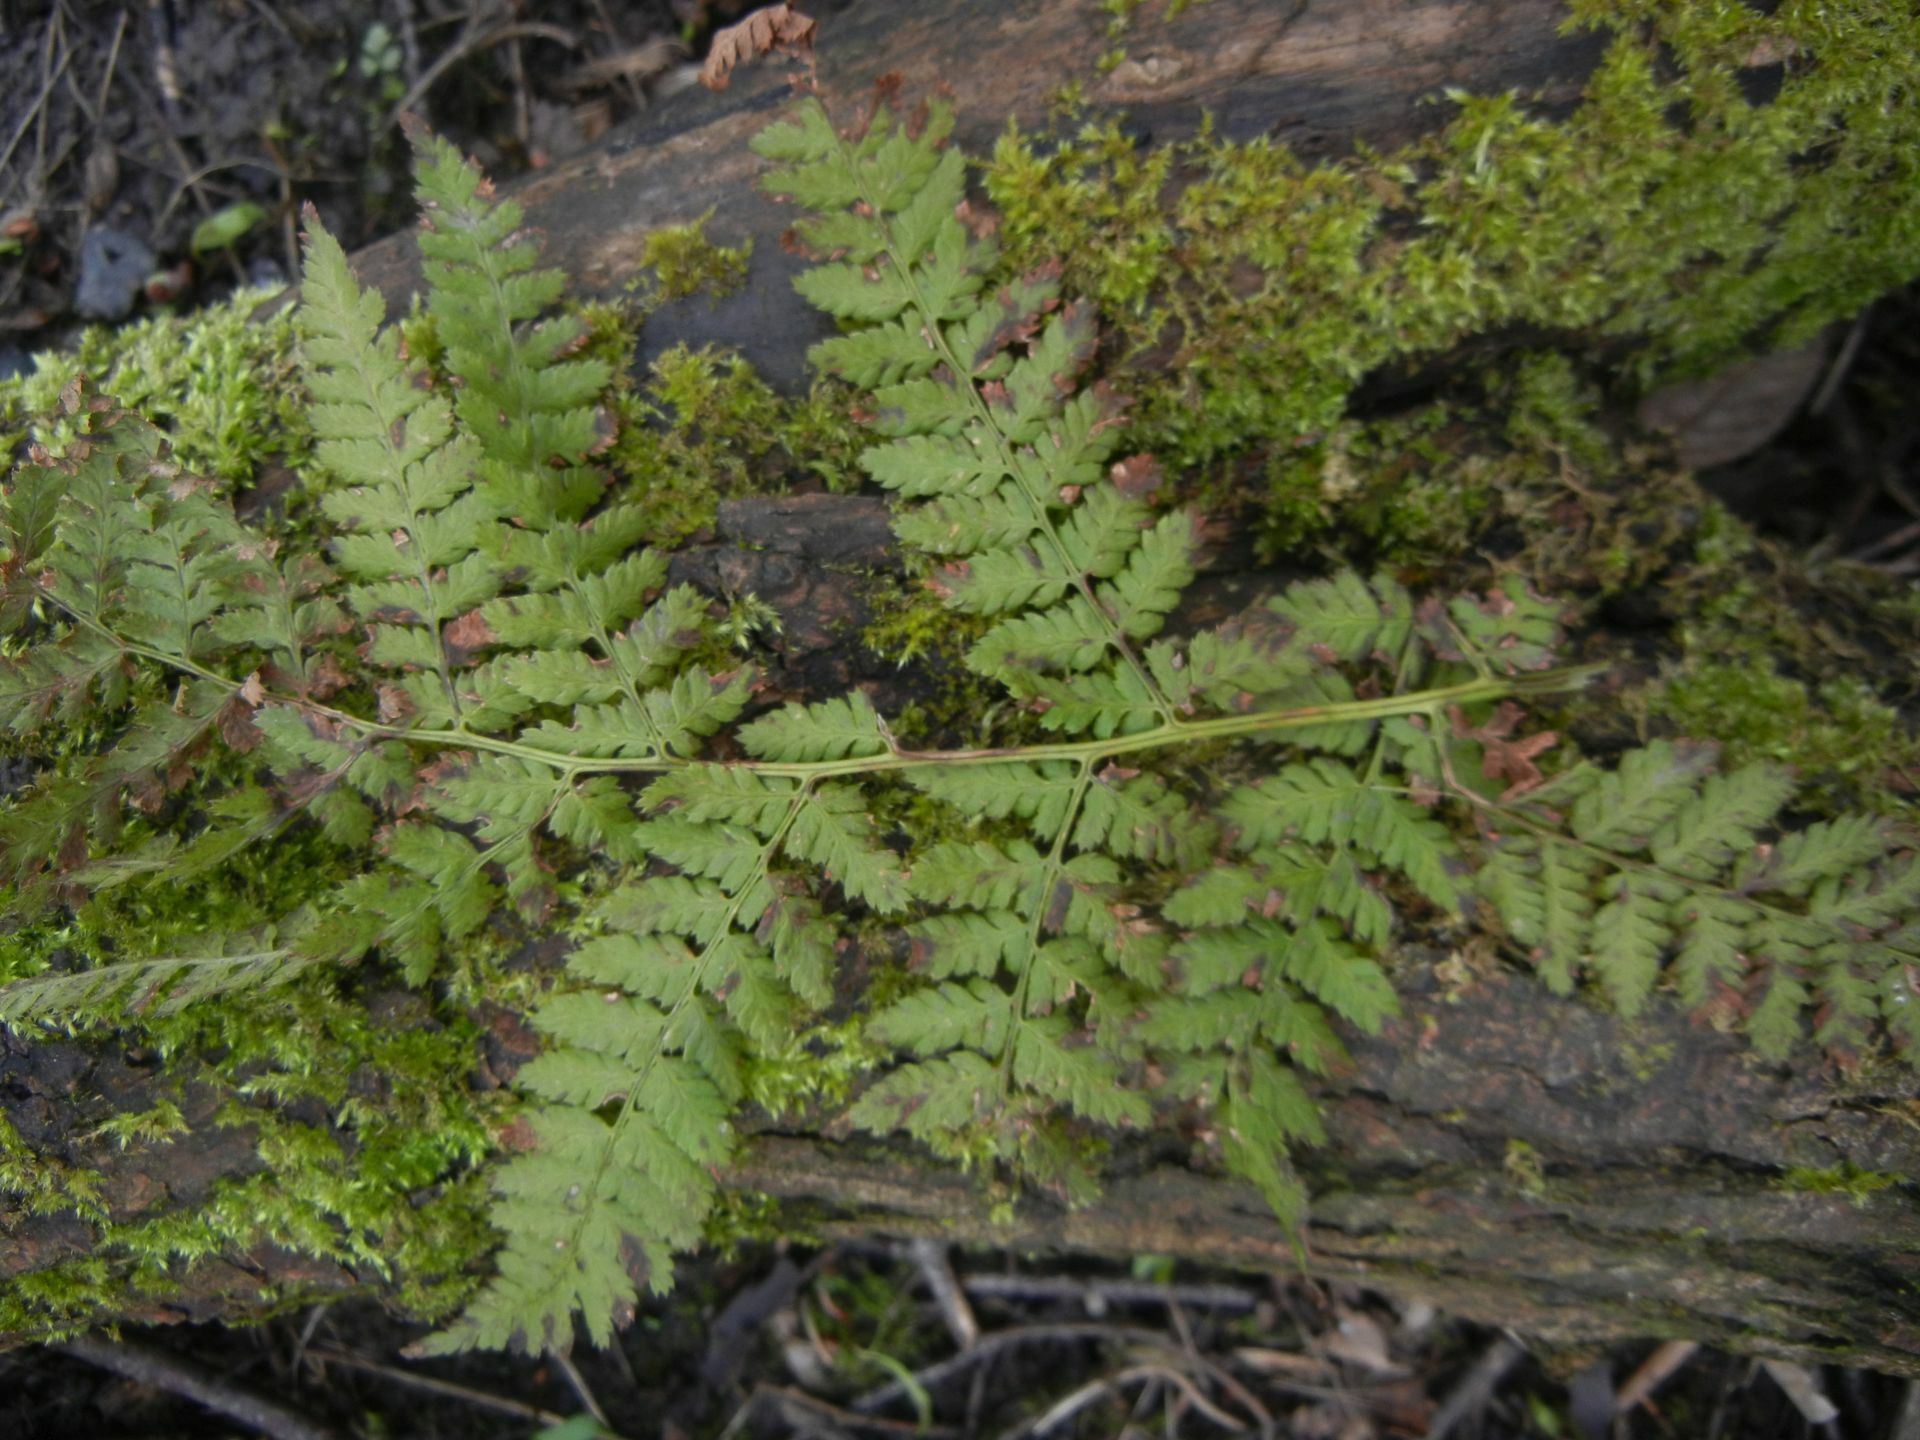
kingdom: Plantae
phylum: Tracheophyta
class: Polypodiopsida
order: Polypodiales
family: Dryopteridaceae
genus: Dryopteris
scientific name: Dryopteris dilatata
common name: Broad buckler-fern
